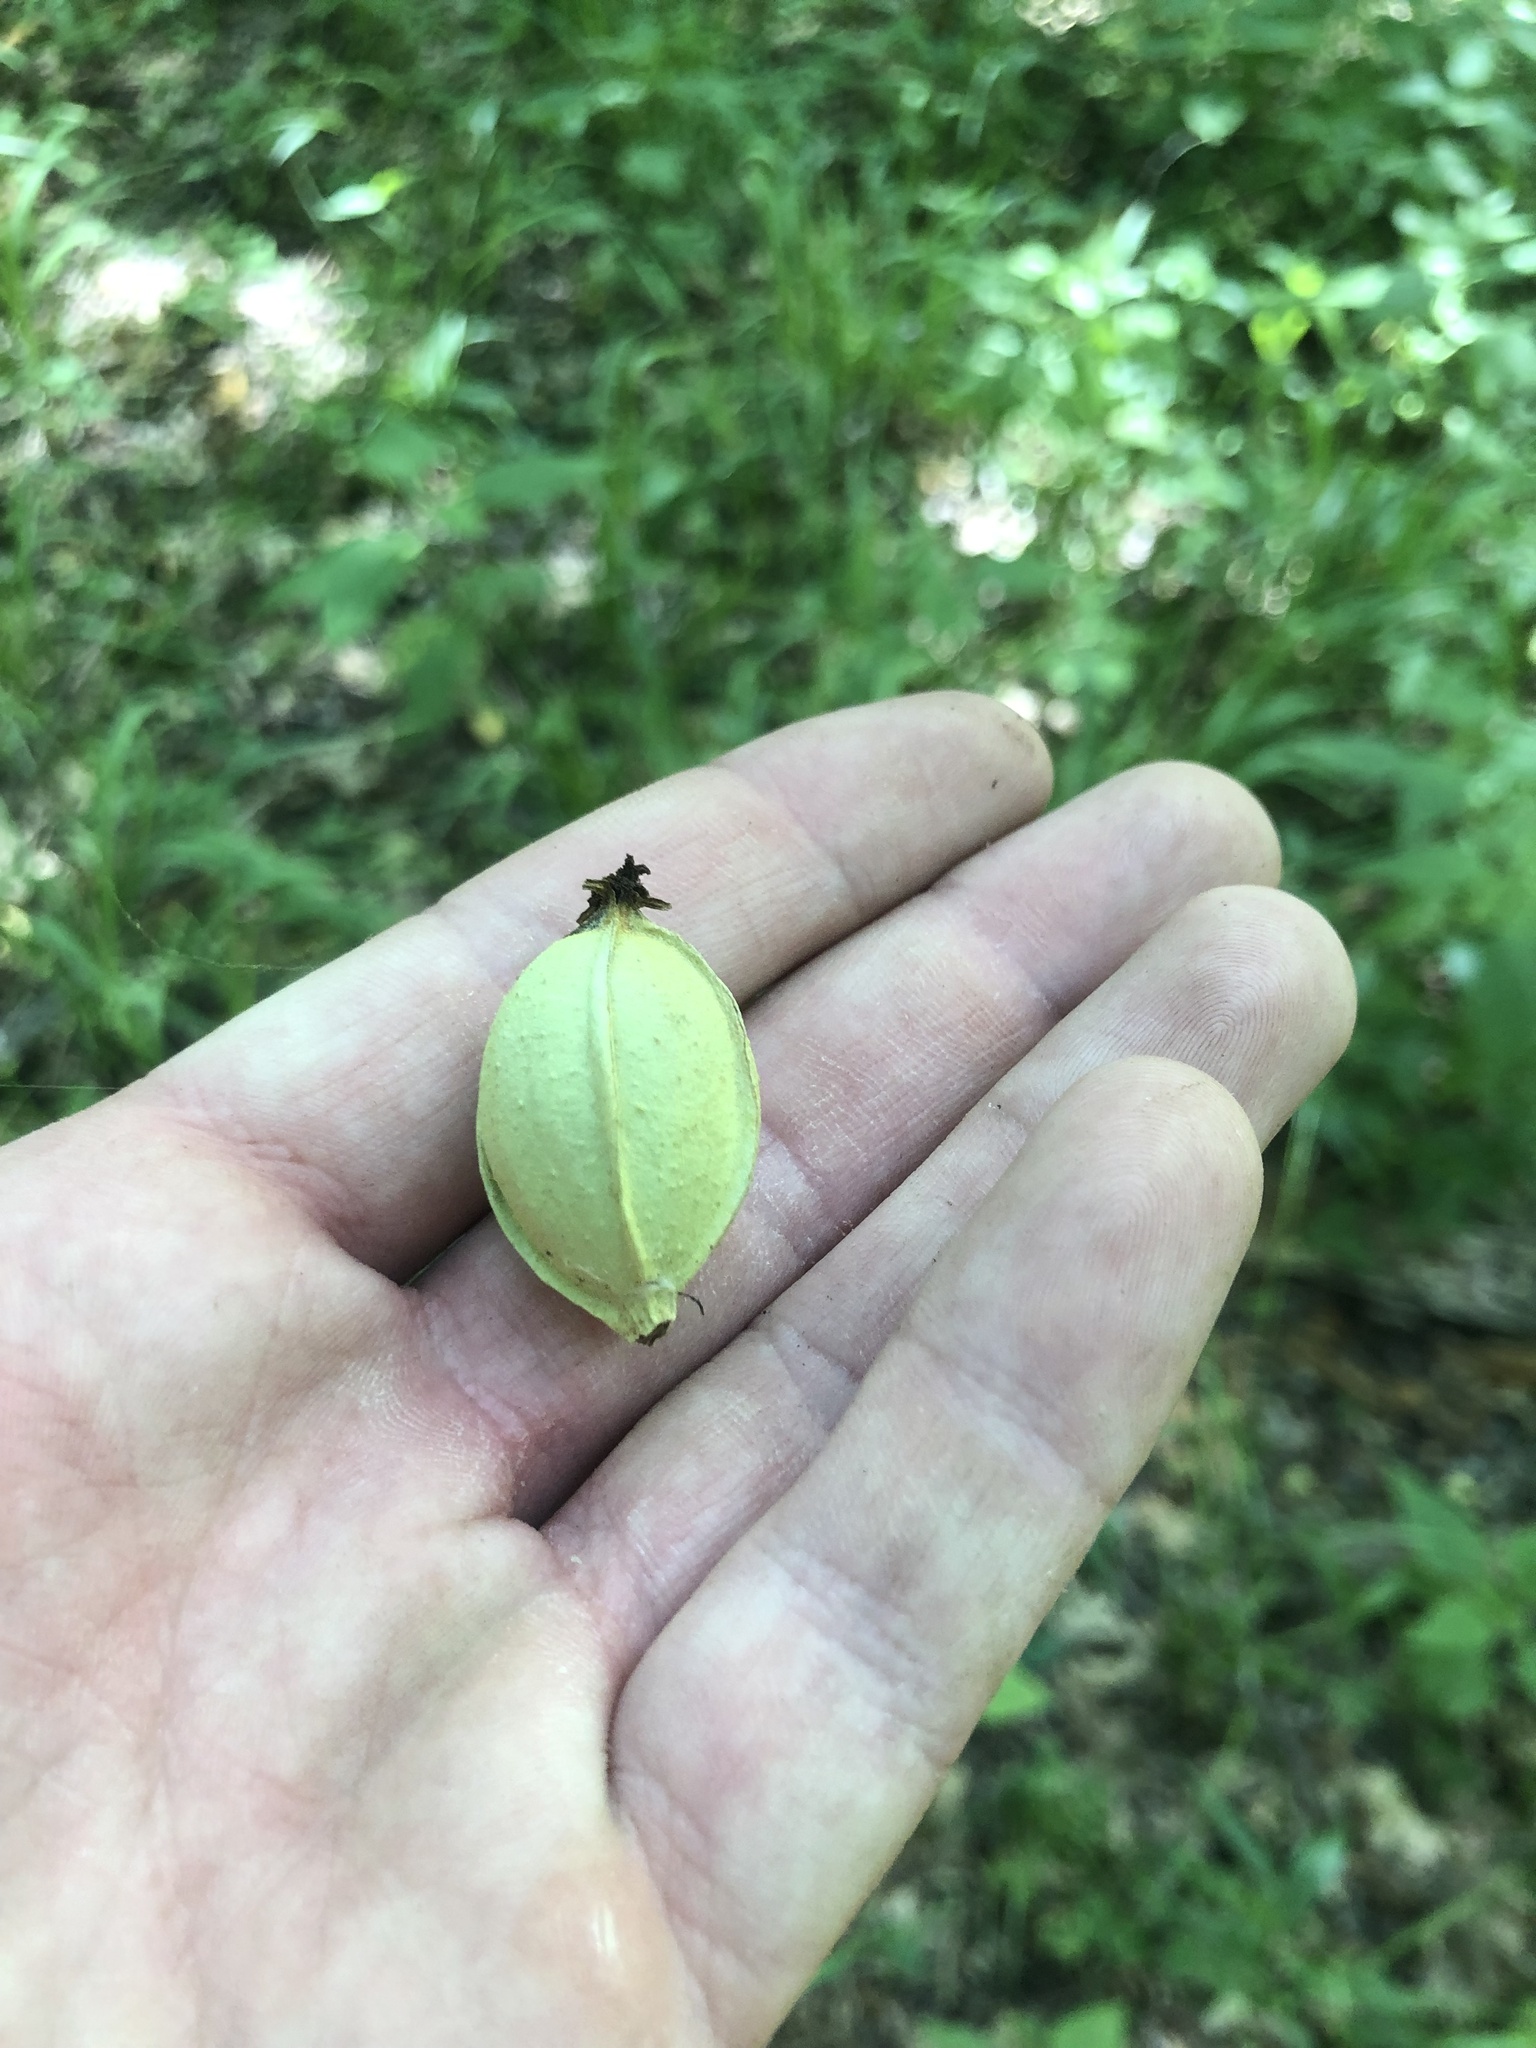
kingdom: Plantae
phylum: Tracheophyta
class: Magnoliopsida
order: Fagales
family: Juglandaceae
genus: Carya
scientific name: Carya myristiciformis
